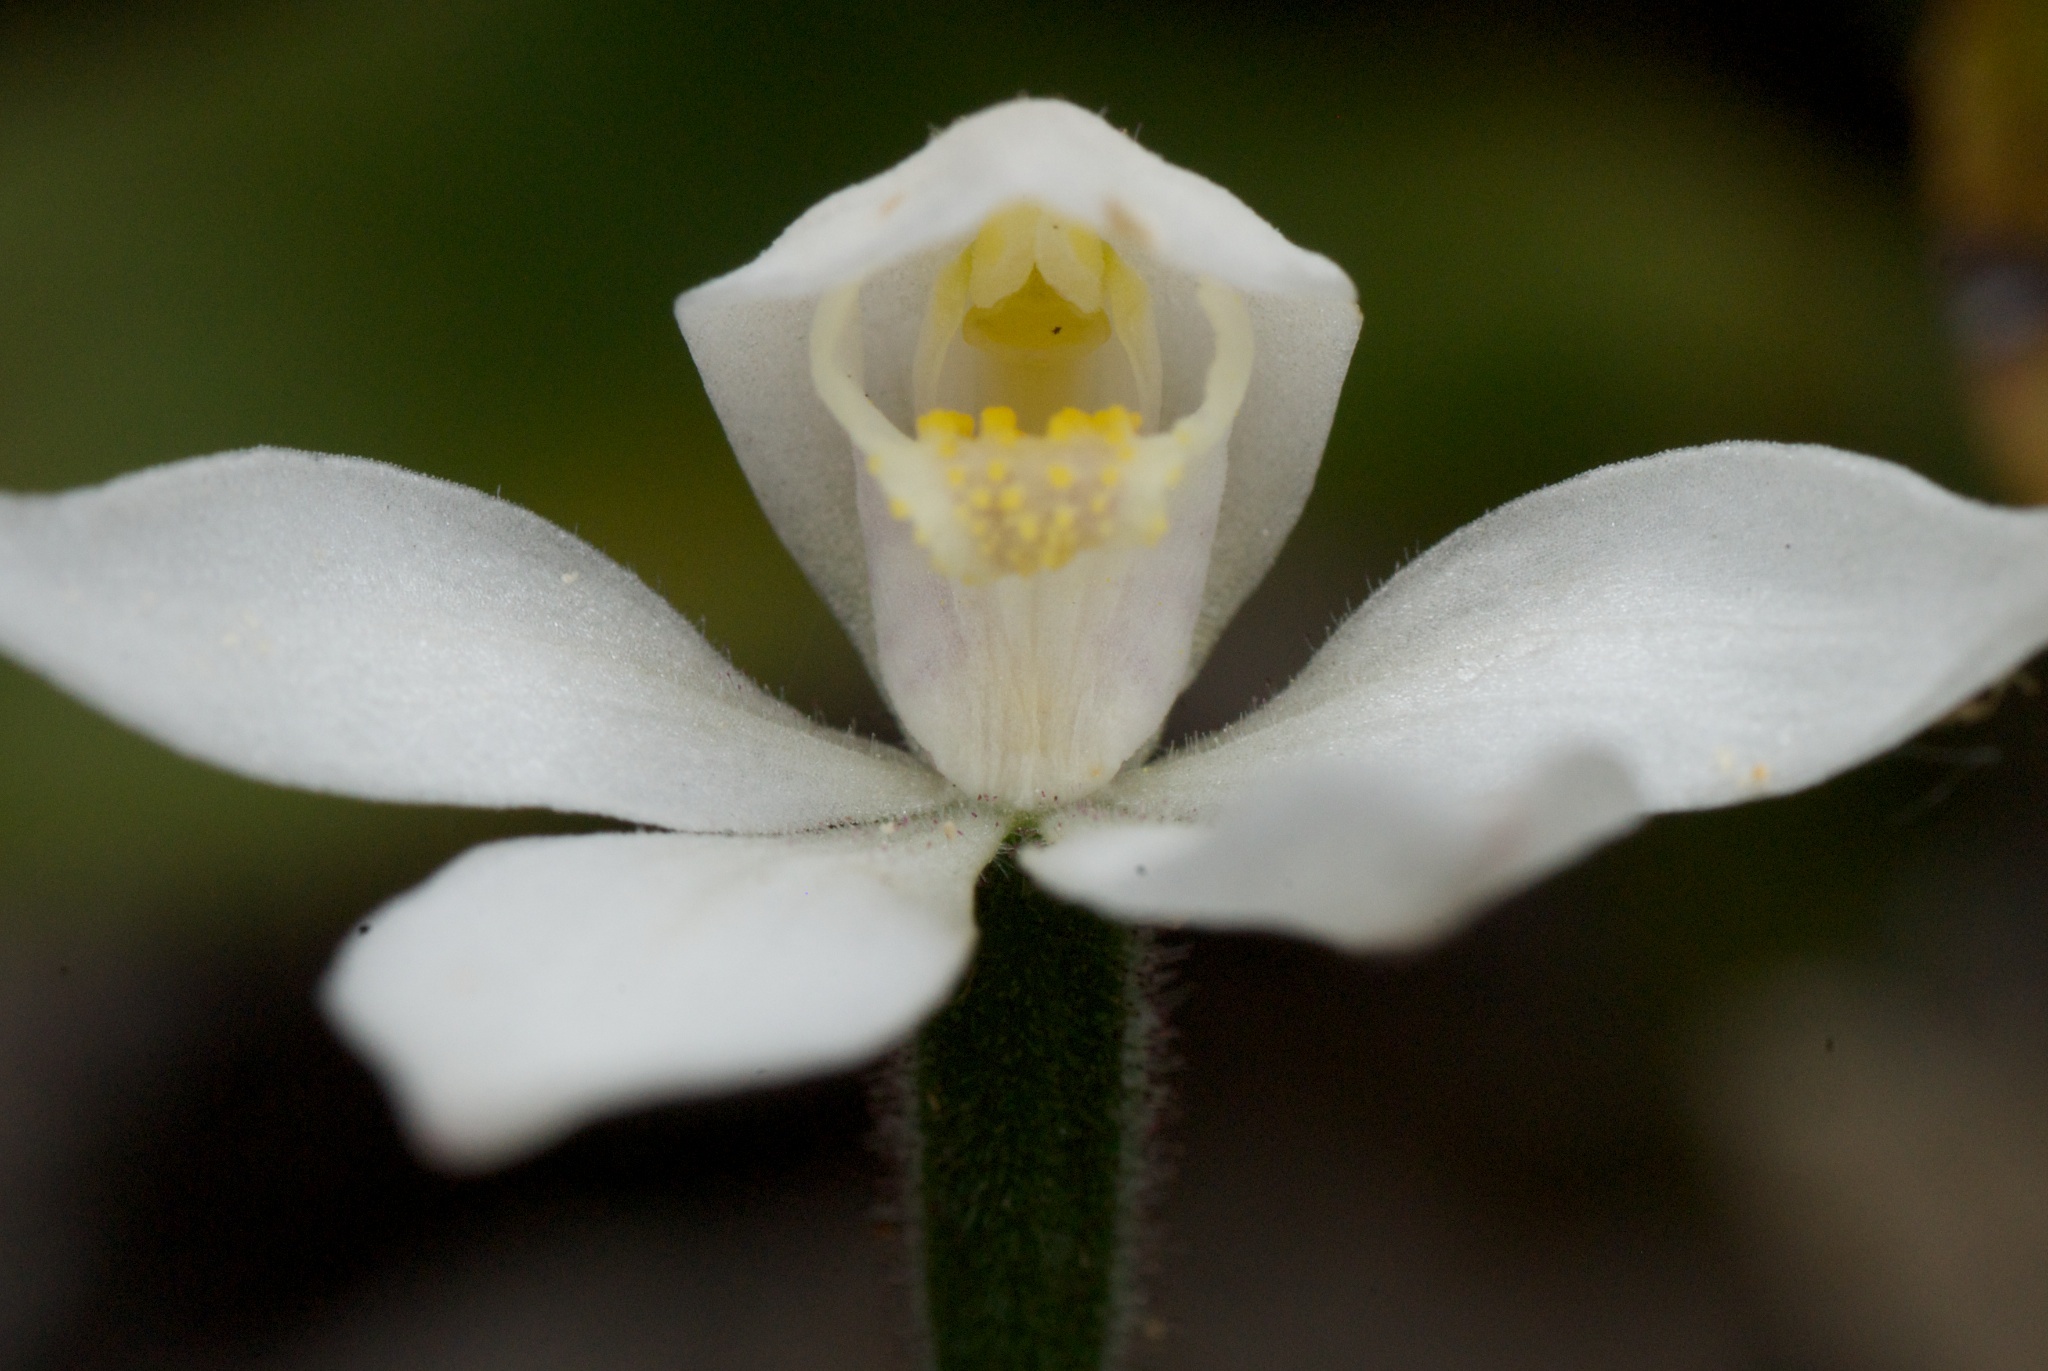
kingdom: Plantae
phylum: Tracheophyta
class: Liliopsida
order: Asparagales
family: Orchidaceae
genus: Caladenia
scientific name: Caladenia lyallii
